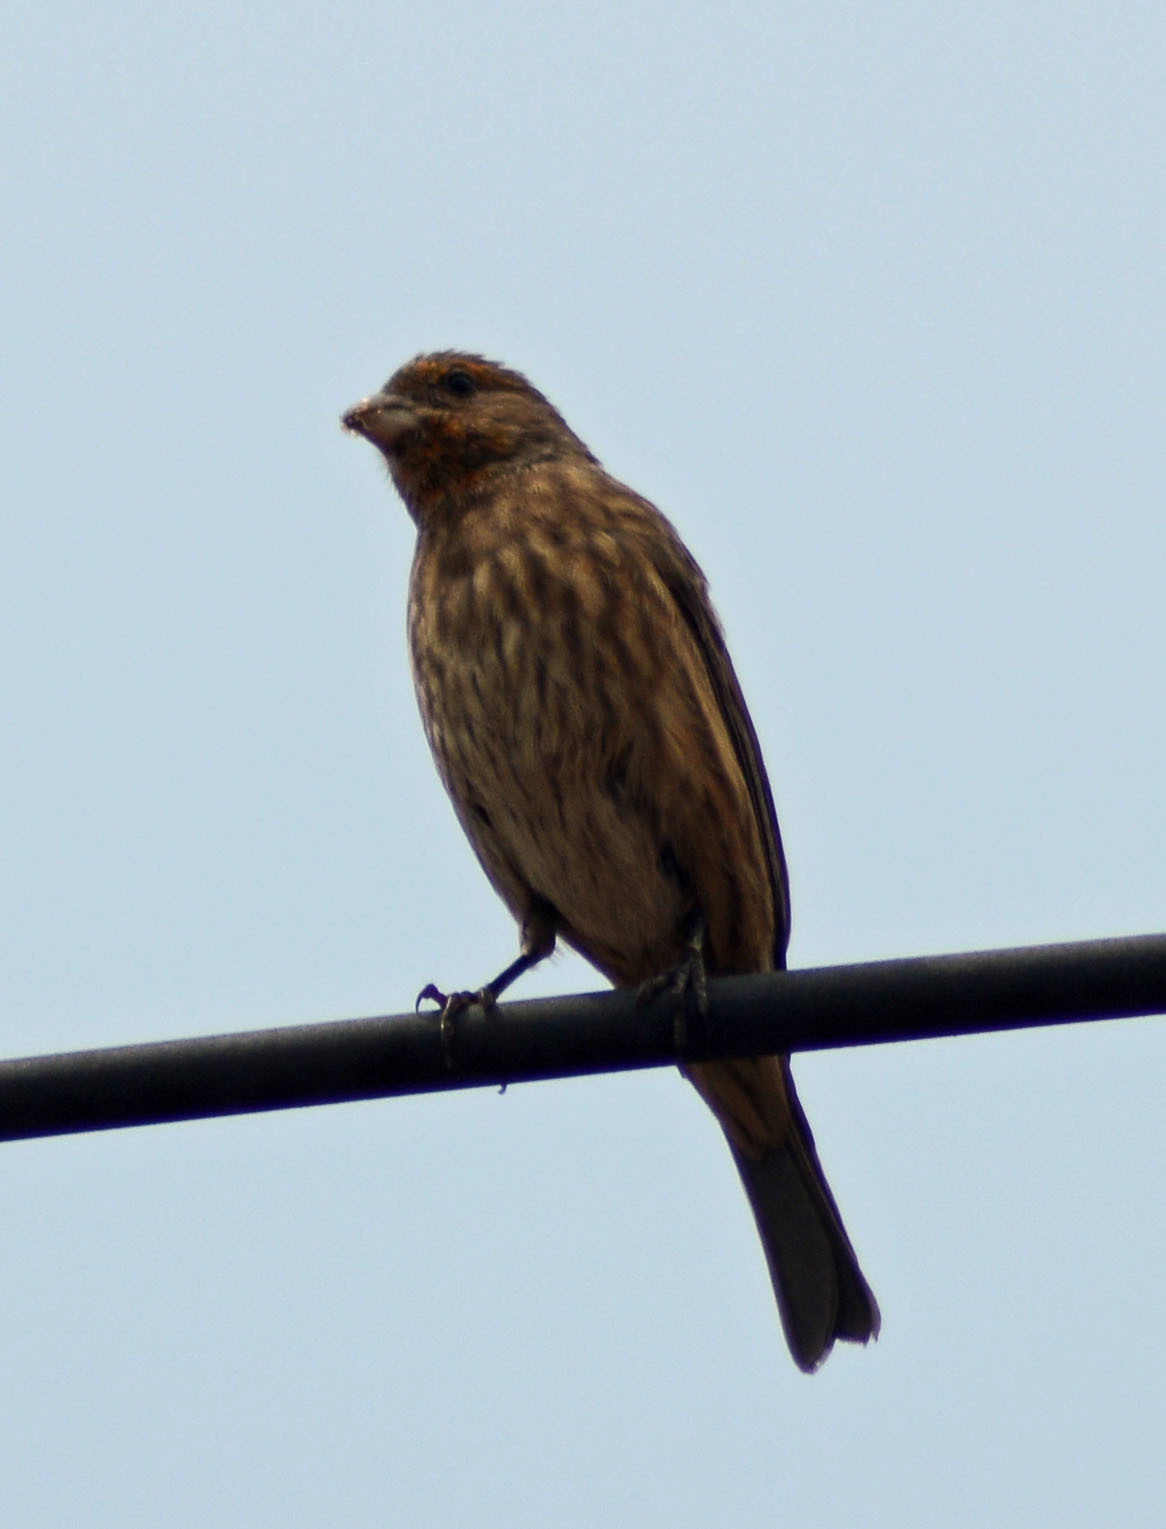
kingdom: Animalia
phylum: Chordata
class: Aves
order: Passeriformes
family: Fringillidae
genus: Haemorhous
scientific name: Haemorhous mexicanus
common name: House finch
